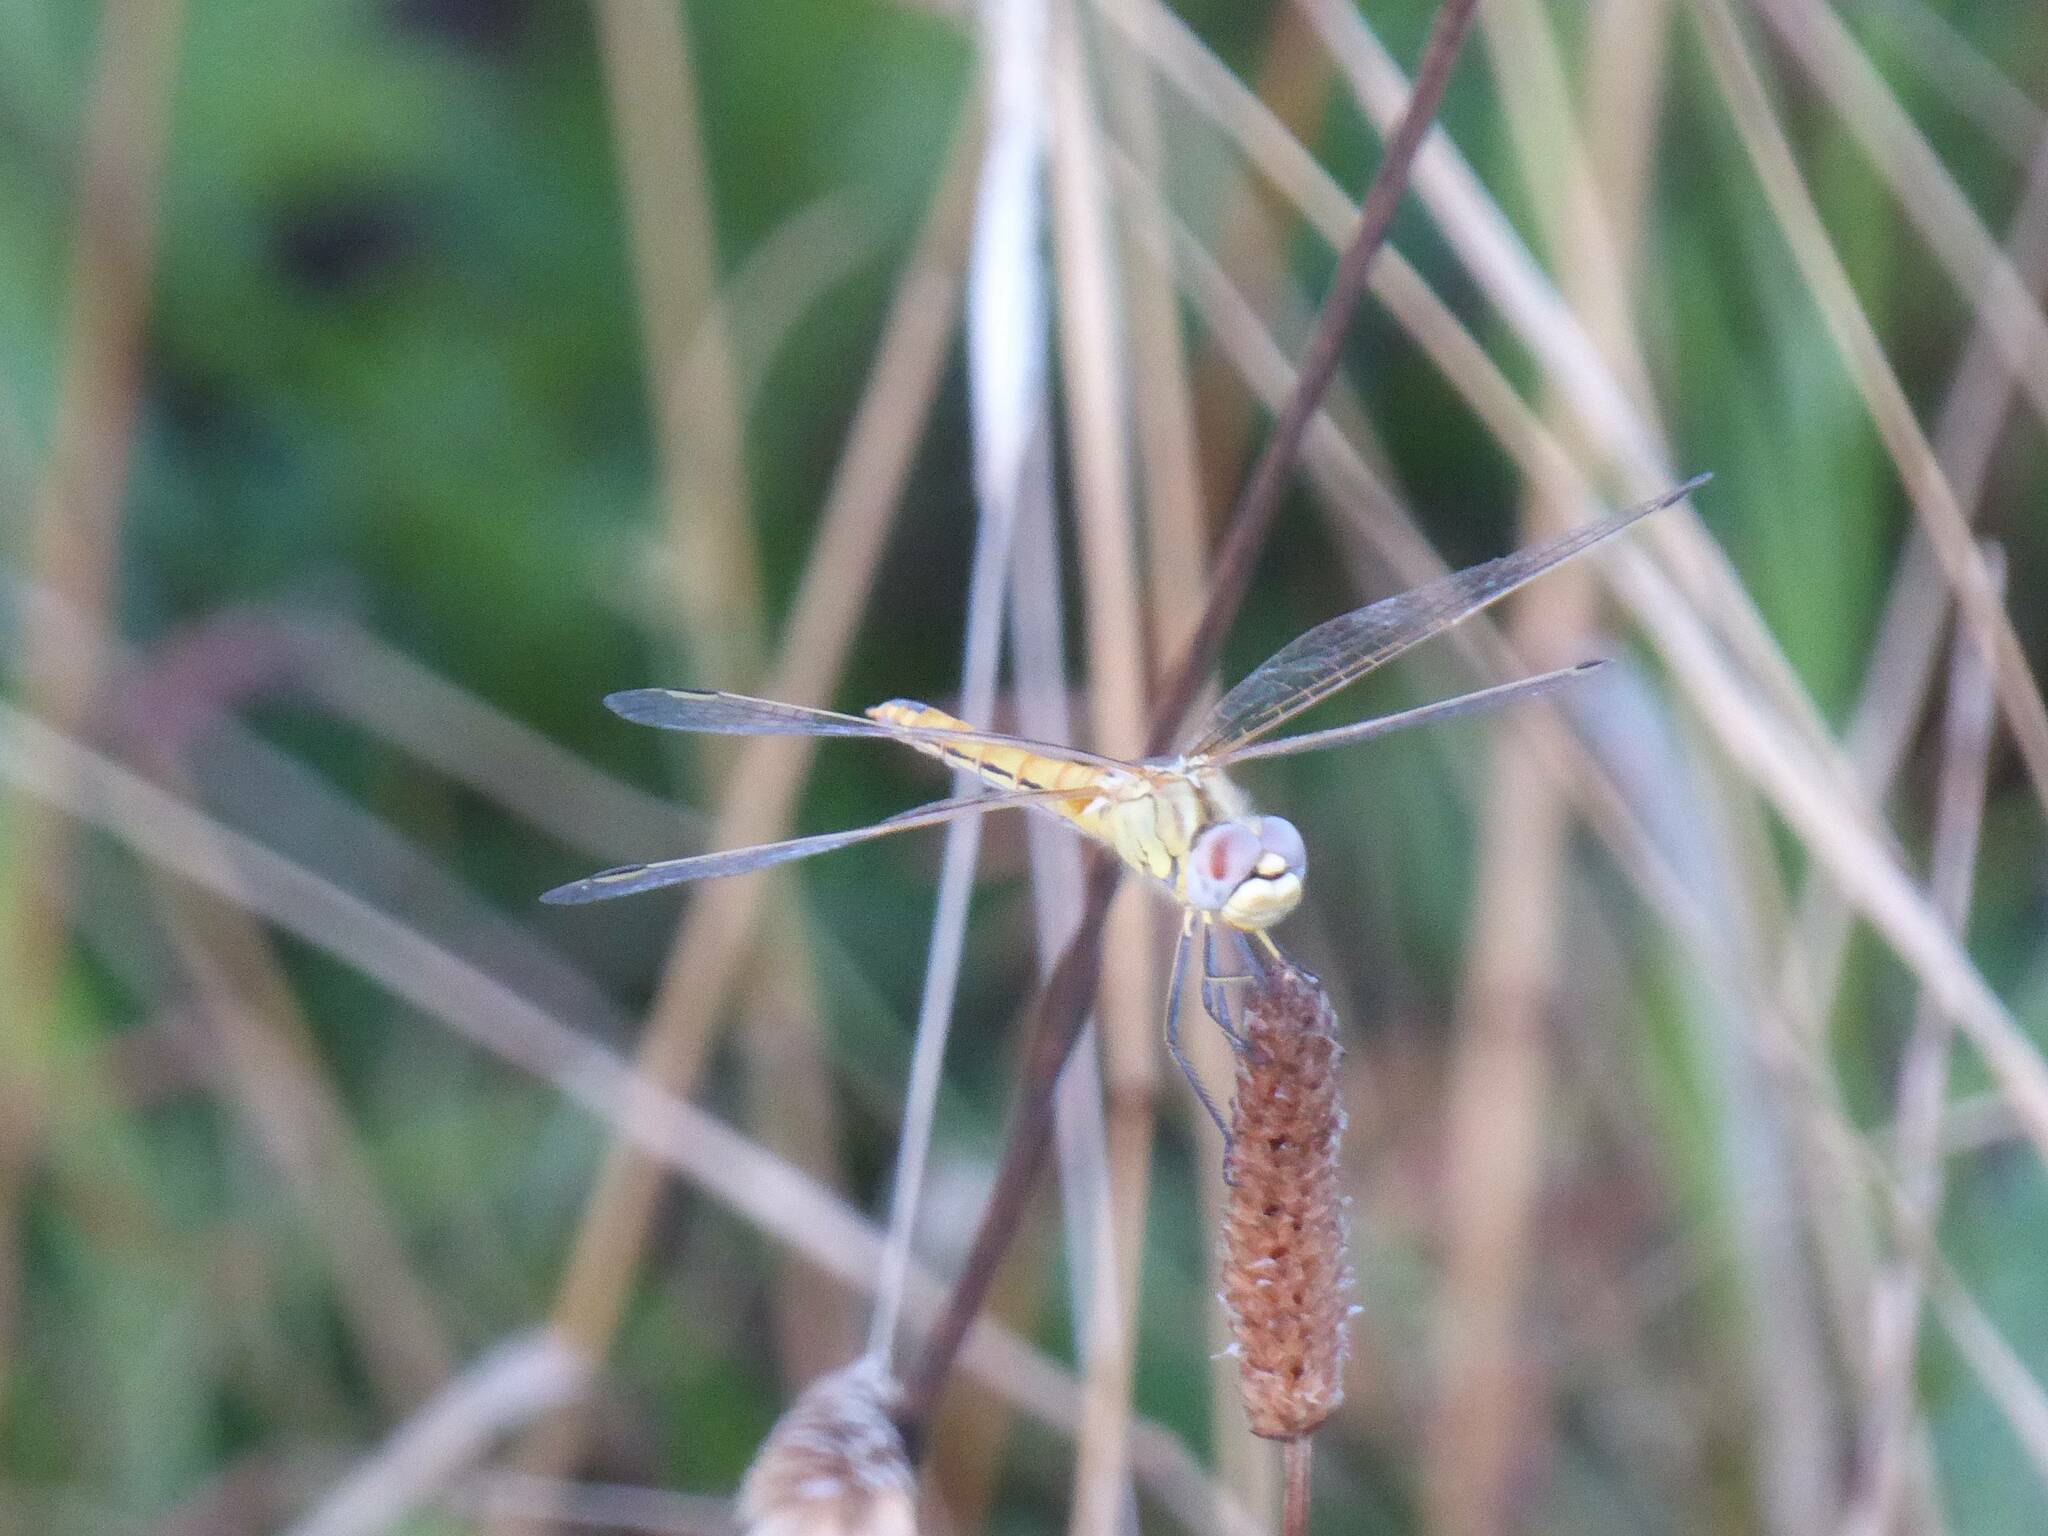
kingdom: Animalia
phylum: Arthropoda
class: Insecta
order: Odonata
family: Libellulidae
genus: Sympetrum
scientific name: Sympetrum fonscolombii
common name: Red-veined darter
